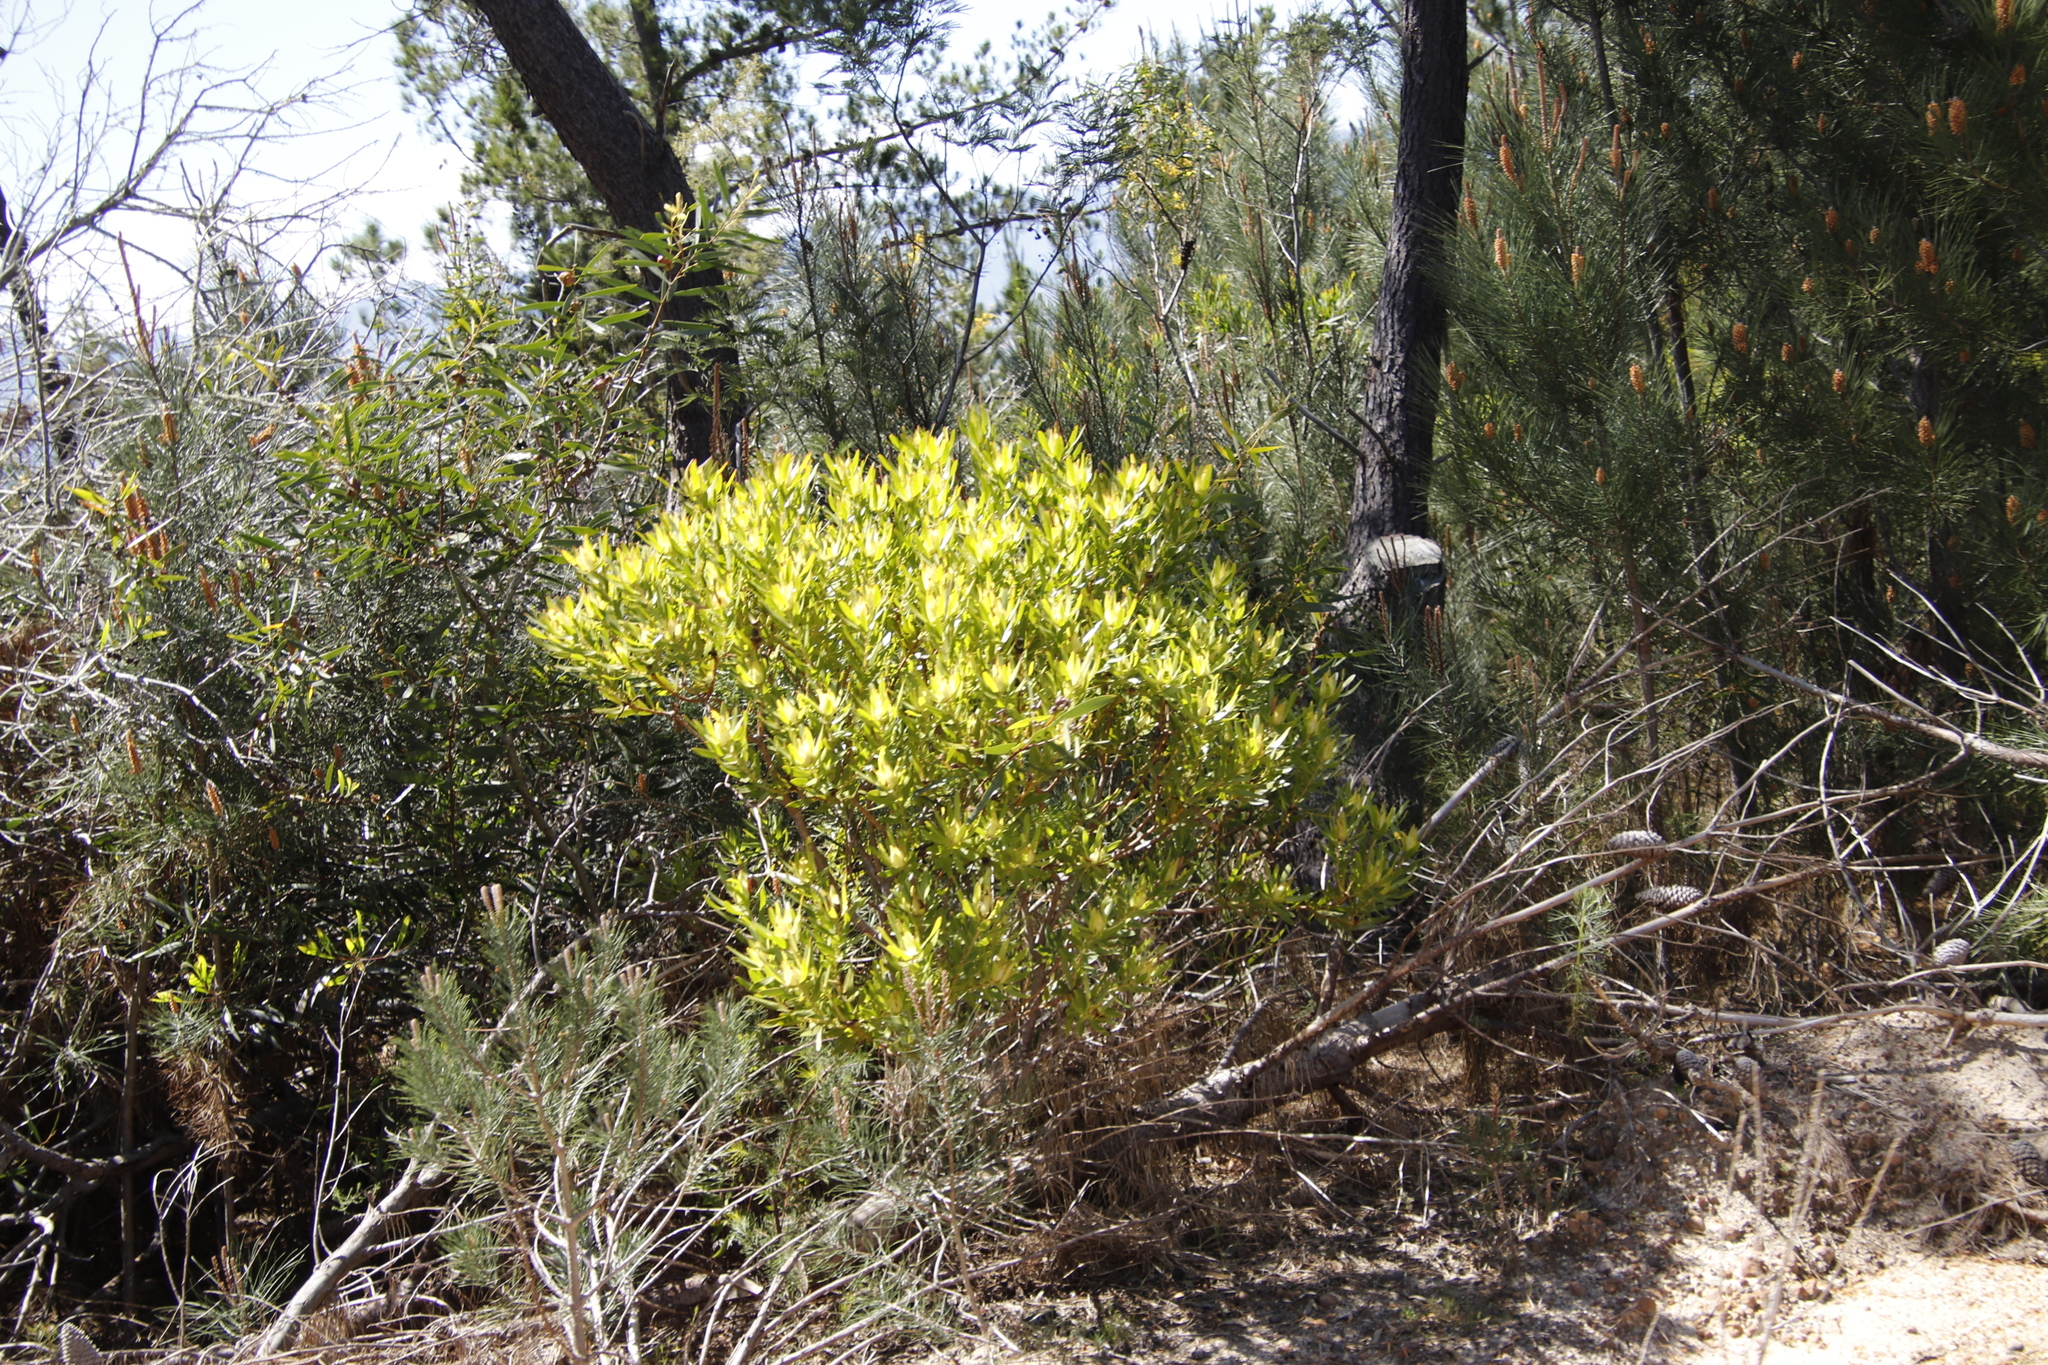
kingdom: Plantae
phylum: Tracheophyta
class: Magnoliopsida
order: Proteales
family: Proteaceae
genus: Leucadendron
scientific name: Leucadendron laureolum
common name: Golden sunshinebush
